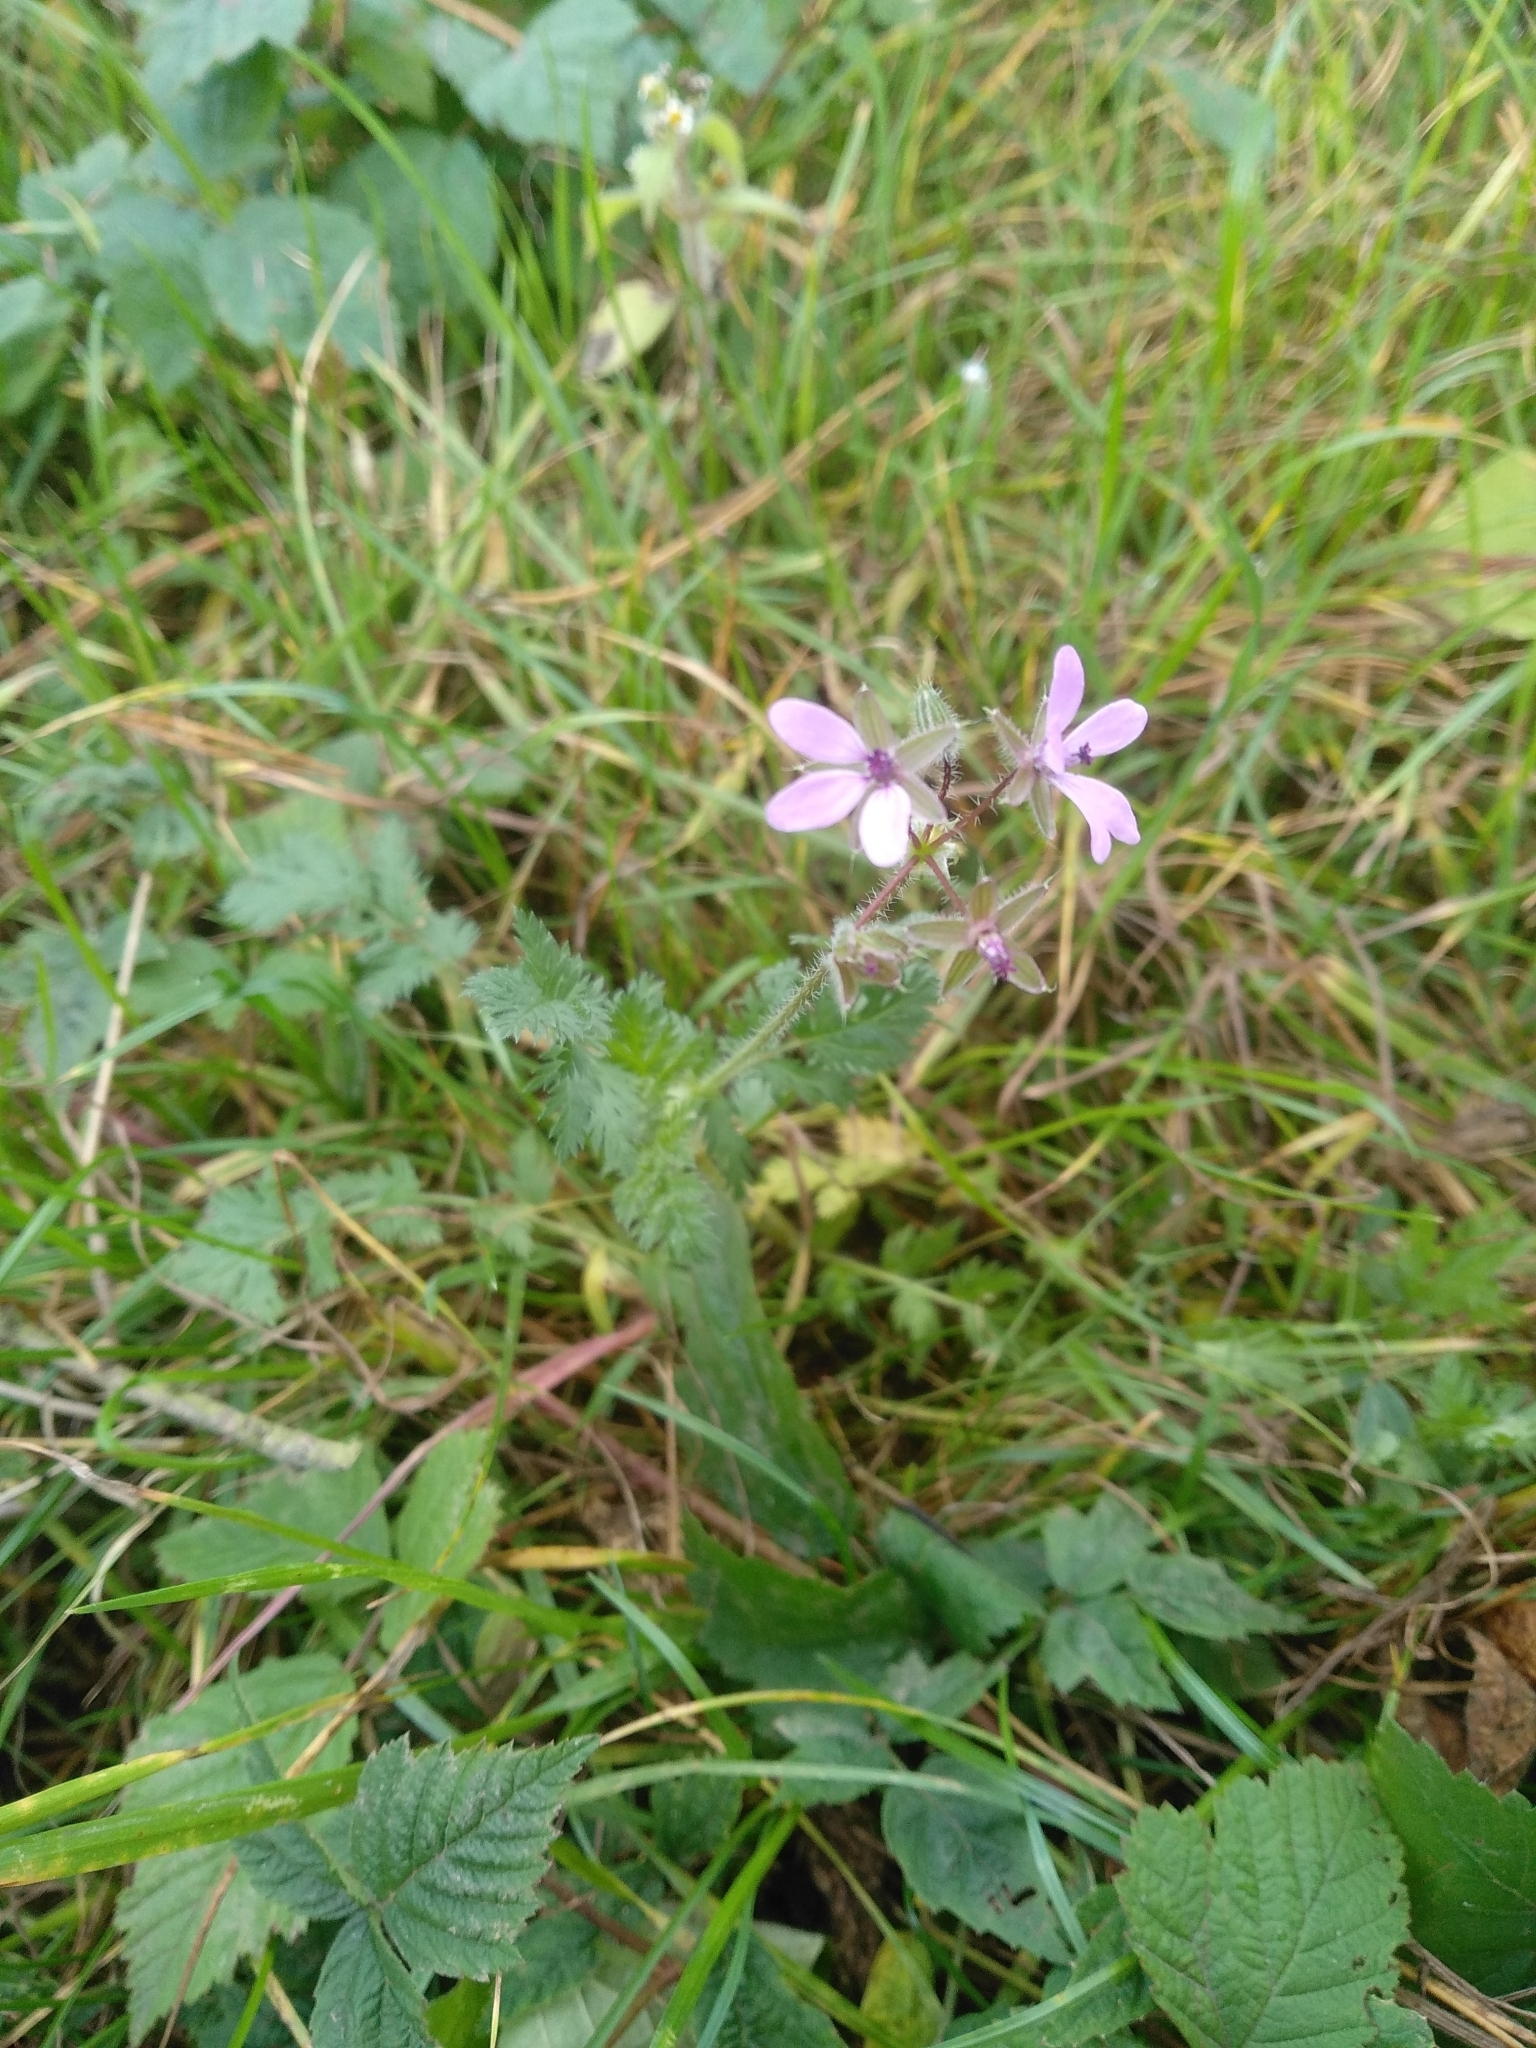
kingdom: Plantae
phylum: Tracheophyta
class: Magnoliopsida
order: Geraniales
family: Geraniaceae
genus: Erodium
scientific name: Erodium cicutarium
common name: Common stork's-bill
